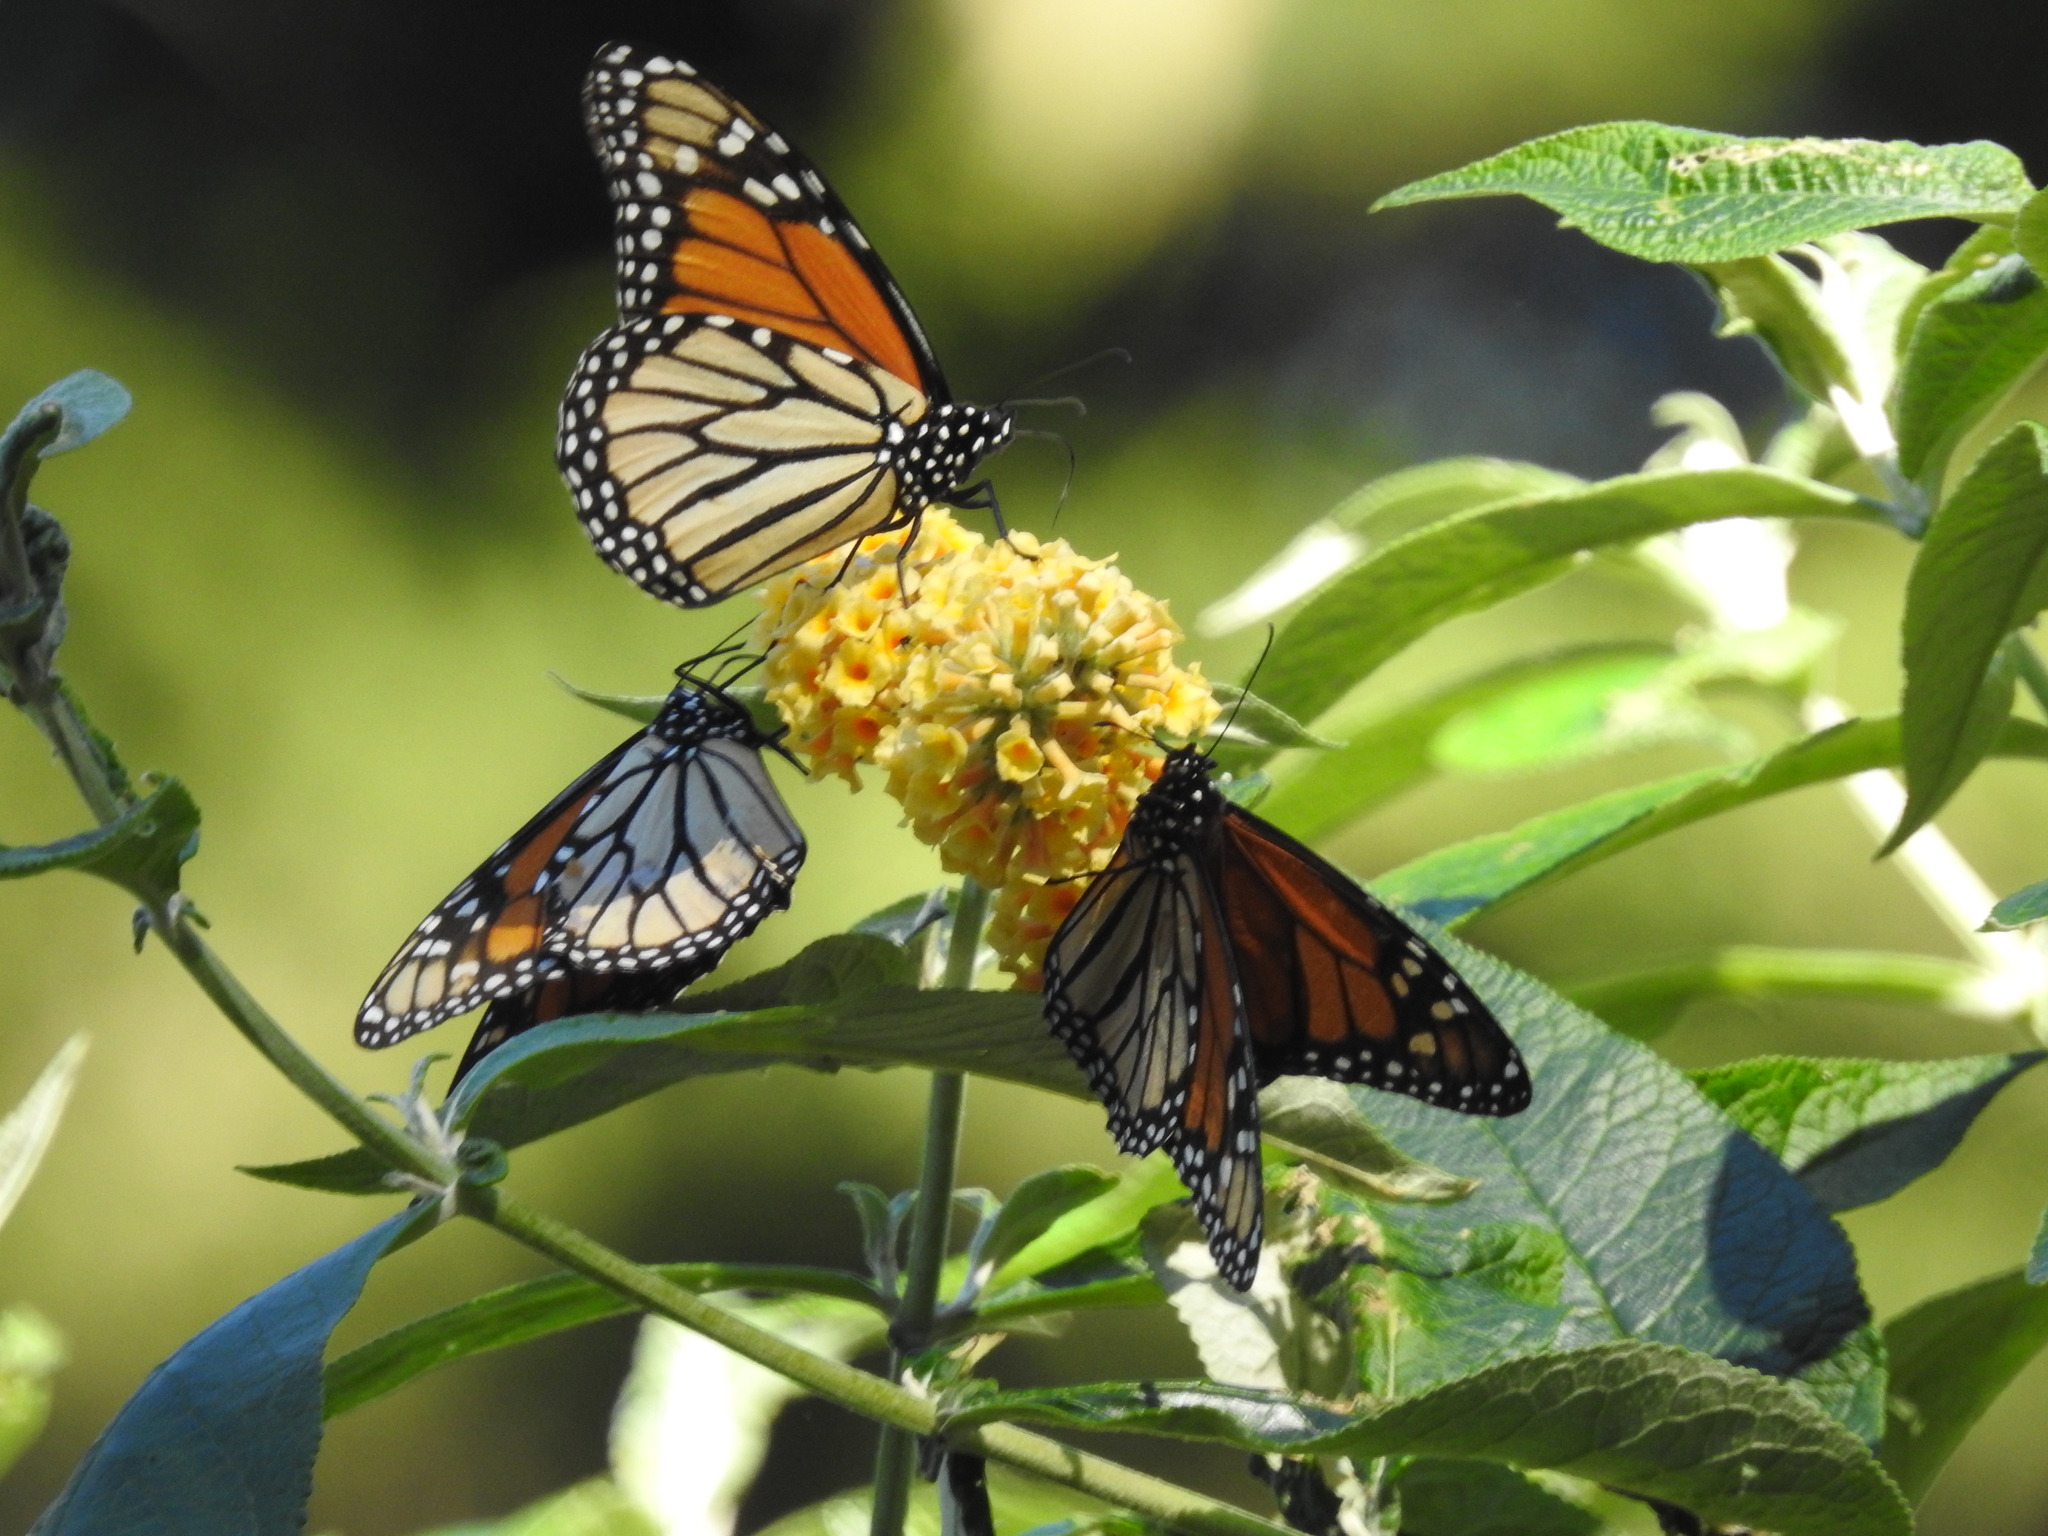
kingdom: Animalia
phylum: Arthropoda
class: Insecta
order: Lepidoptera
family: Nymphalidae
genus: Danaus
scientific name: Danaus plexippus
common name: Monarch
